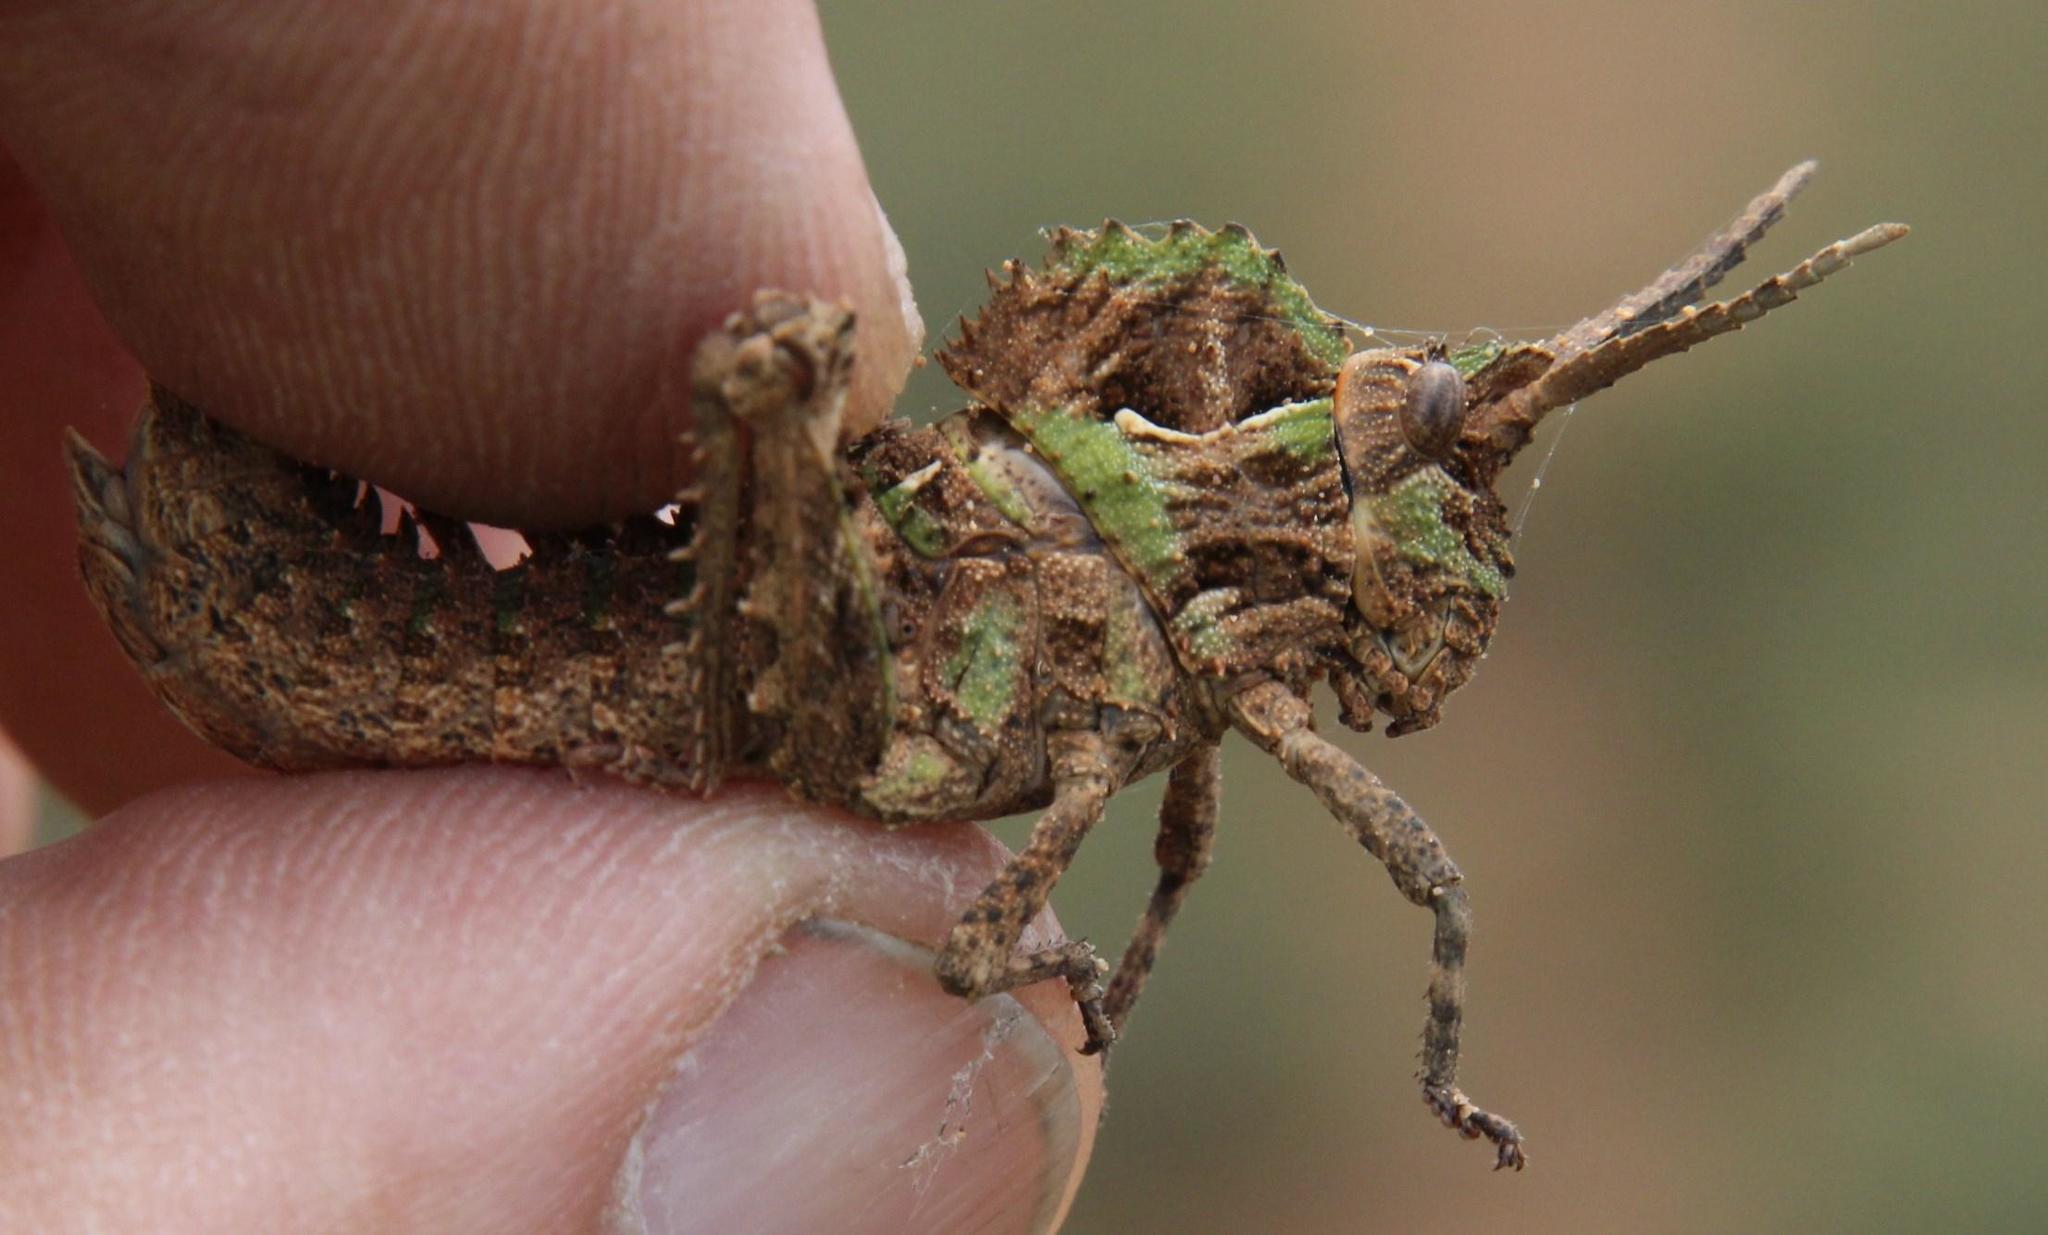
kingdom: Animalia
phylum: Arthropoda
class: Insecta
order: Orthoptera
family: Pamphagidae
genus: Hoplolopha
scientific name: Hoplolopha horrida
